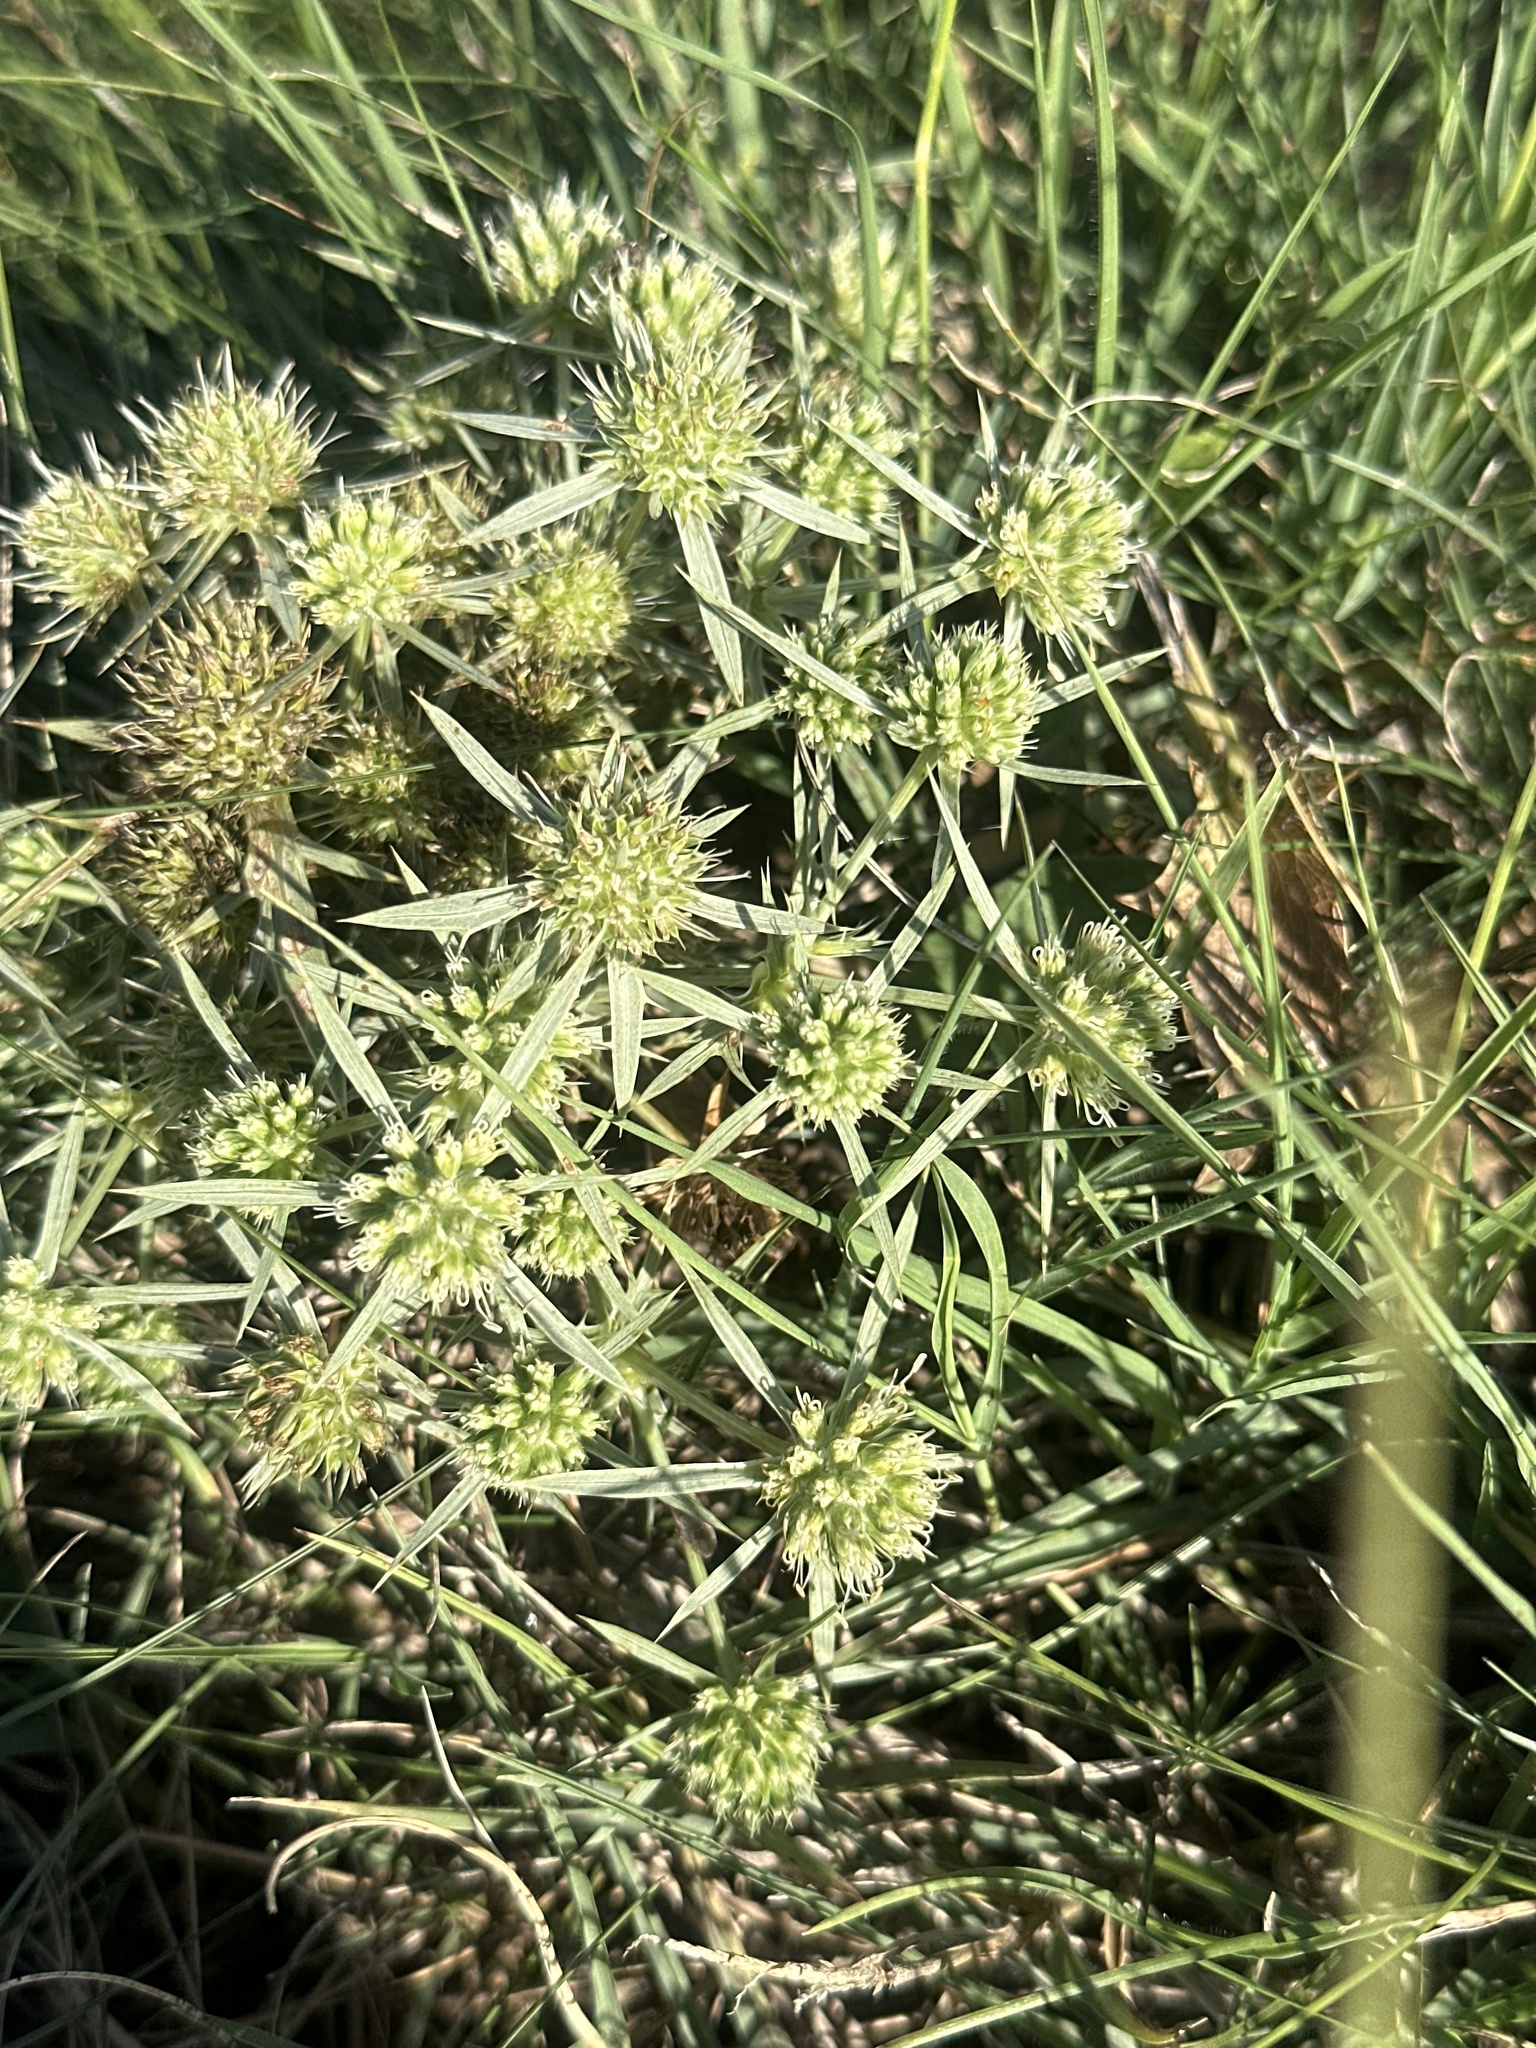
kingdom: Plantae
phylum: Tracheophyta
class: Magnoliopsida
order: Apiales
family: Apiaceae
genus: Eryngium
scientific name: Eryngium campestre
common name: Field eryngo
